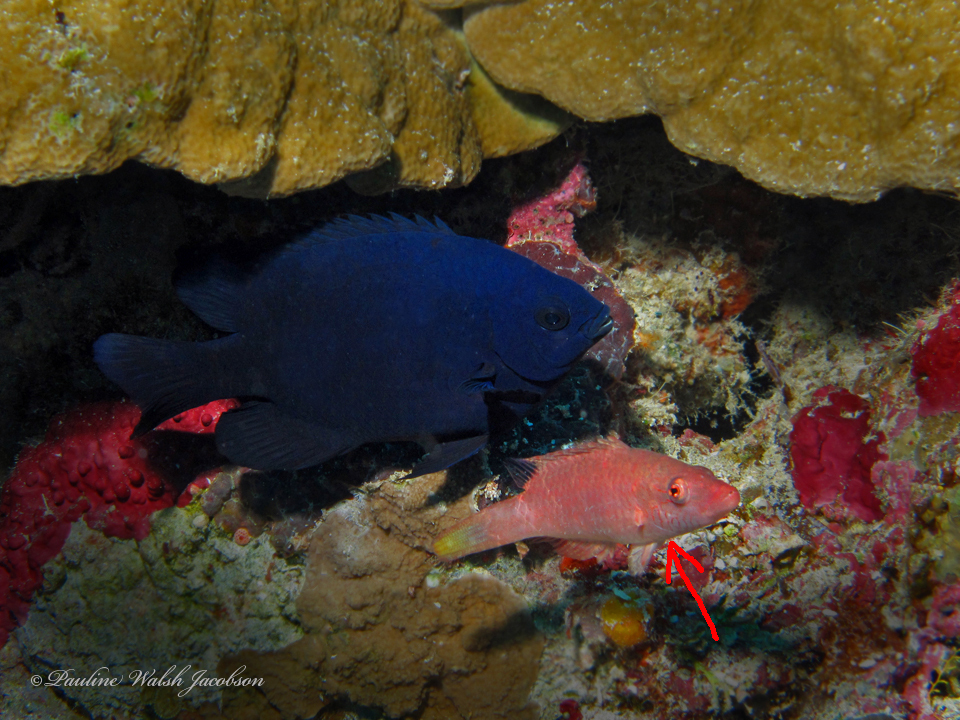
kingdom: Animalia
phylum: Chordata
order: Perciformes
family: Labridae
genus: Oxycheilinus
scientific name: Oxycheilinus digramma
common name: Bandcheek wrasse
